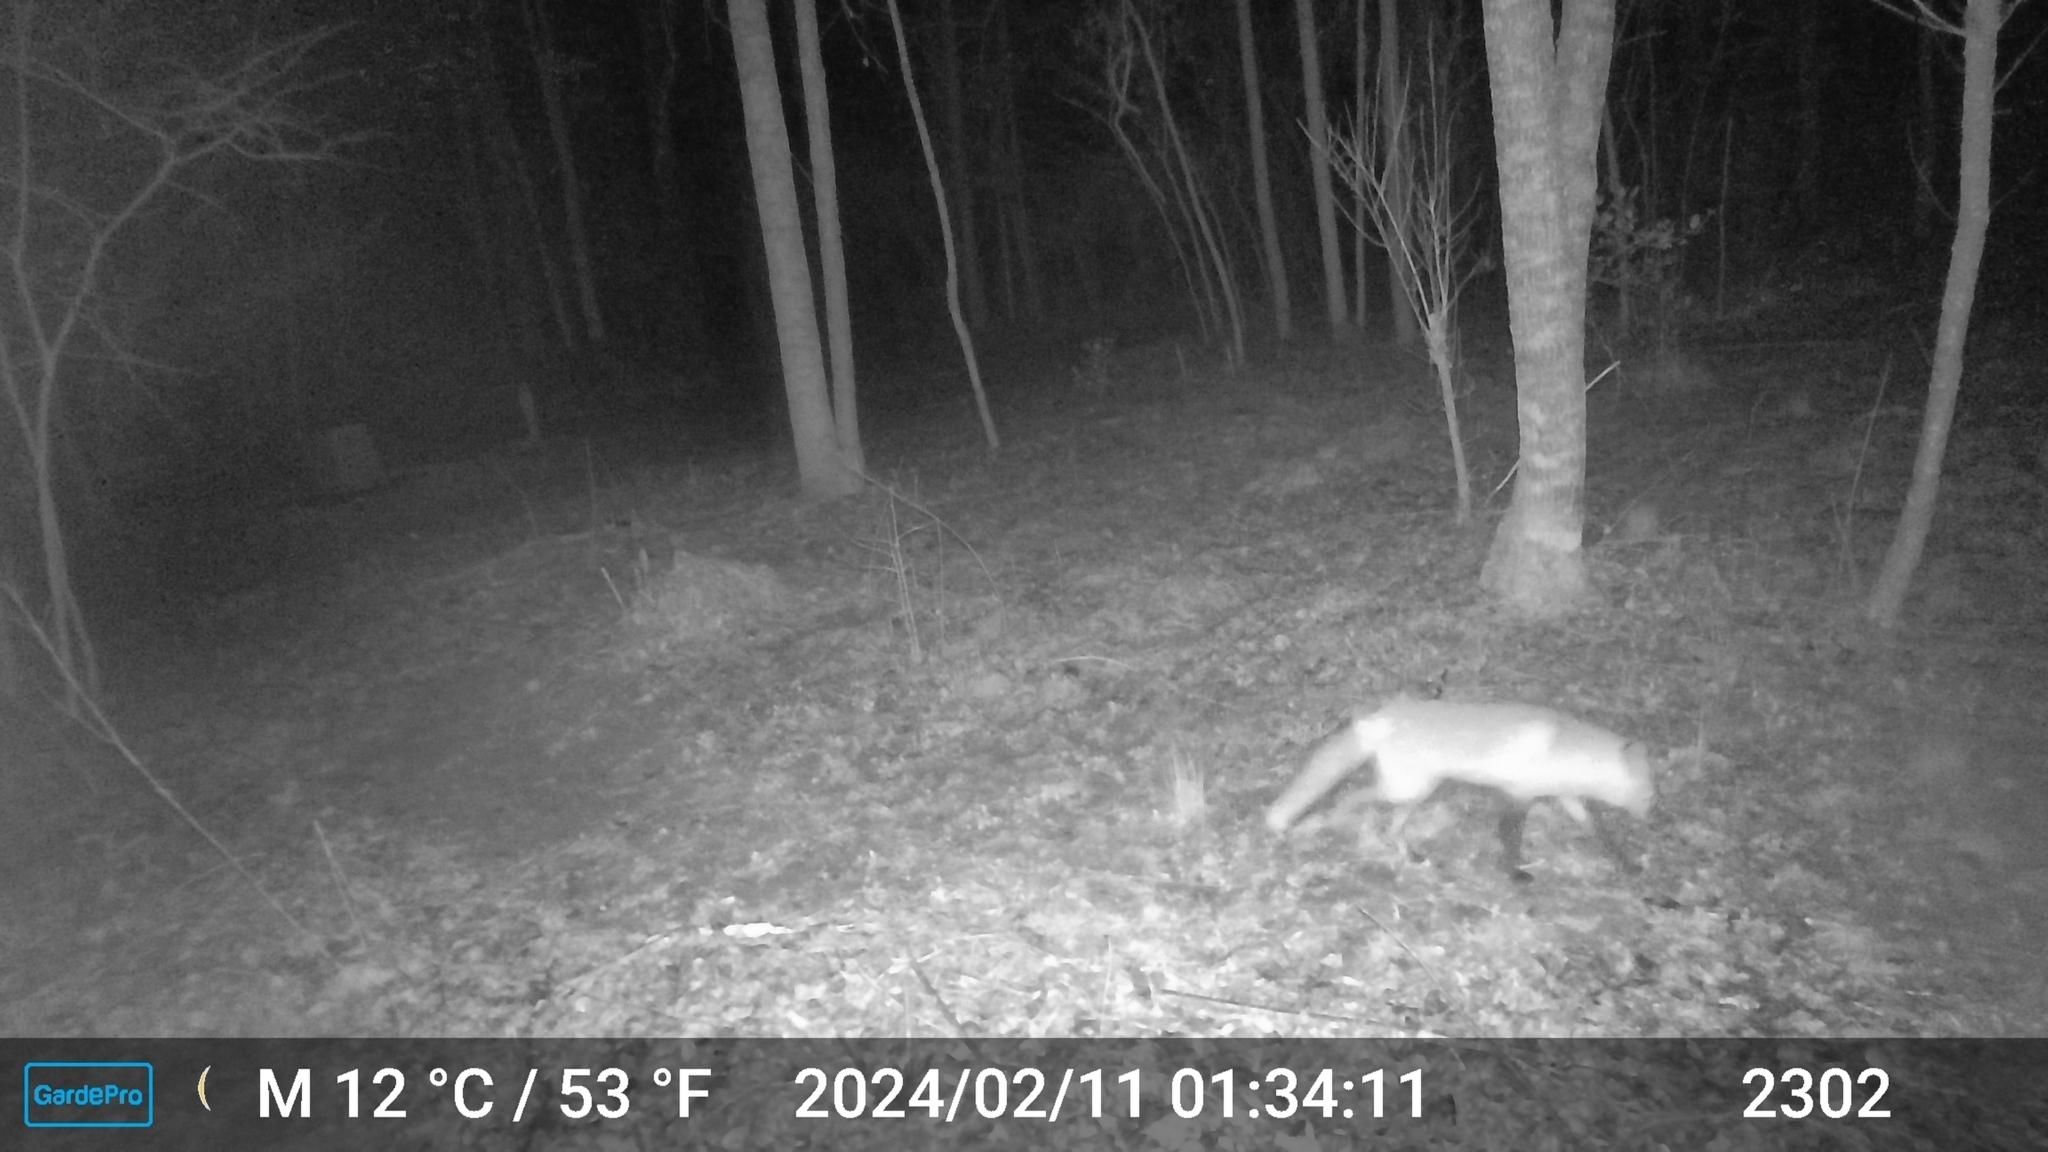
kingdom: Animalia
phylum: Chordata
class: Mammalia
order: Carnivora
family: Canidae
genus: Vulpes
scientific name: Vulpes vulpes
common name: Red fox
